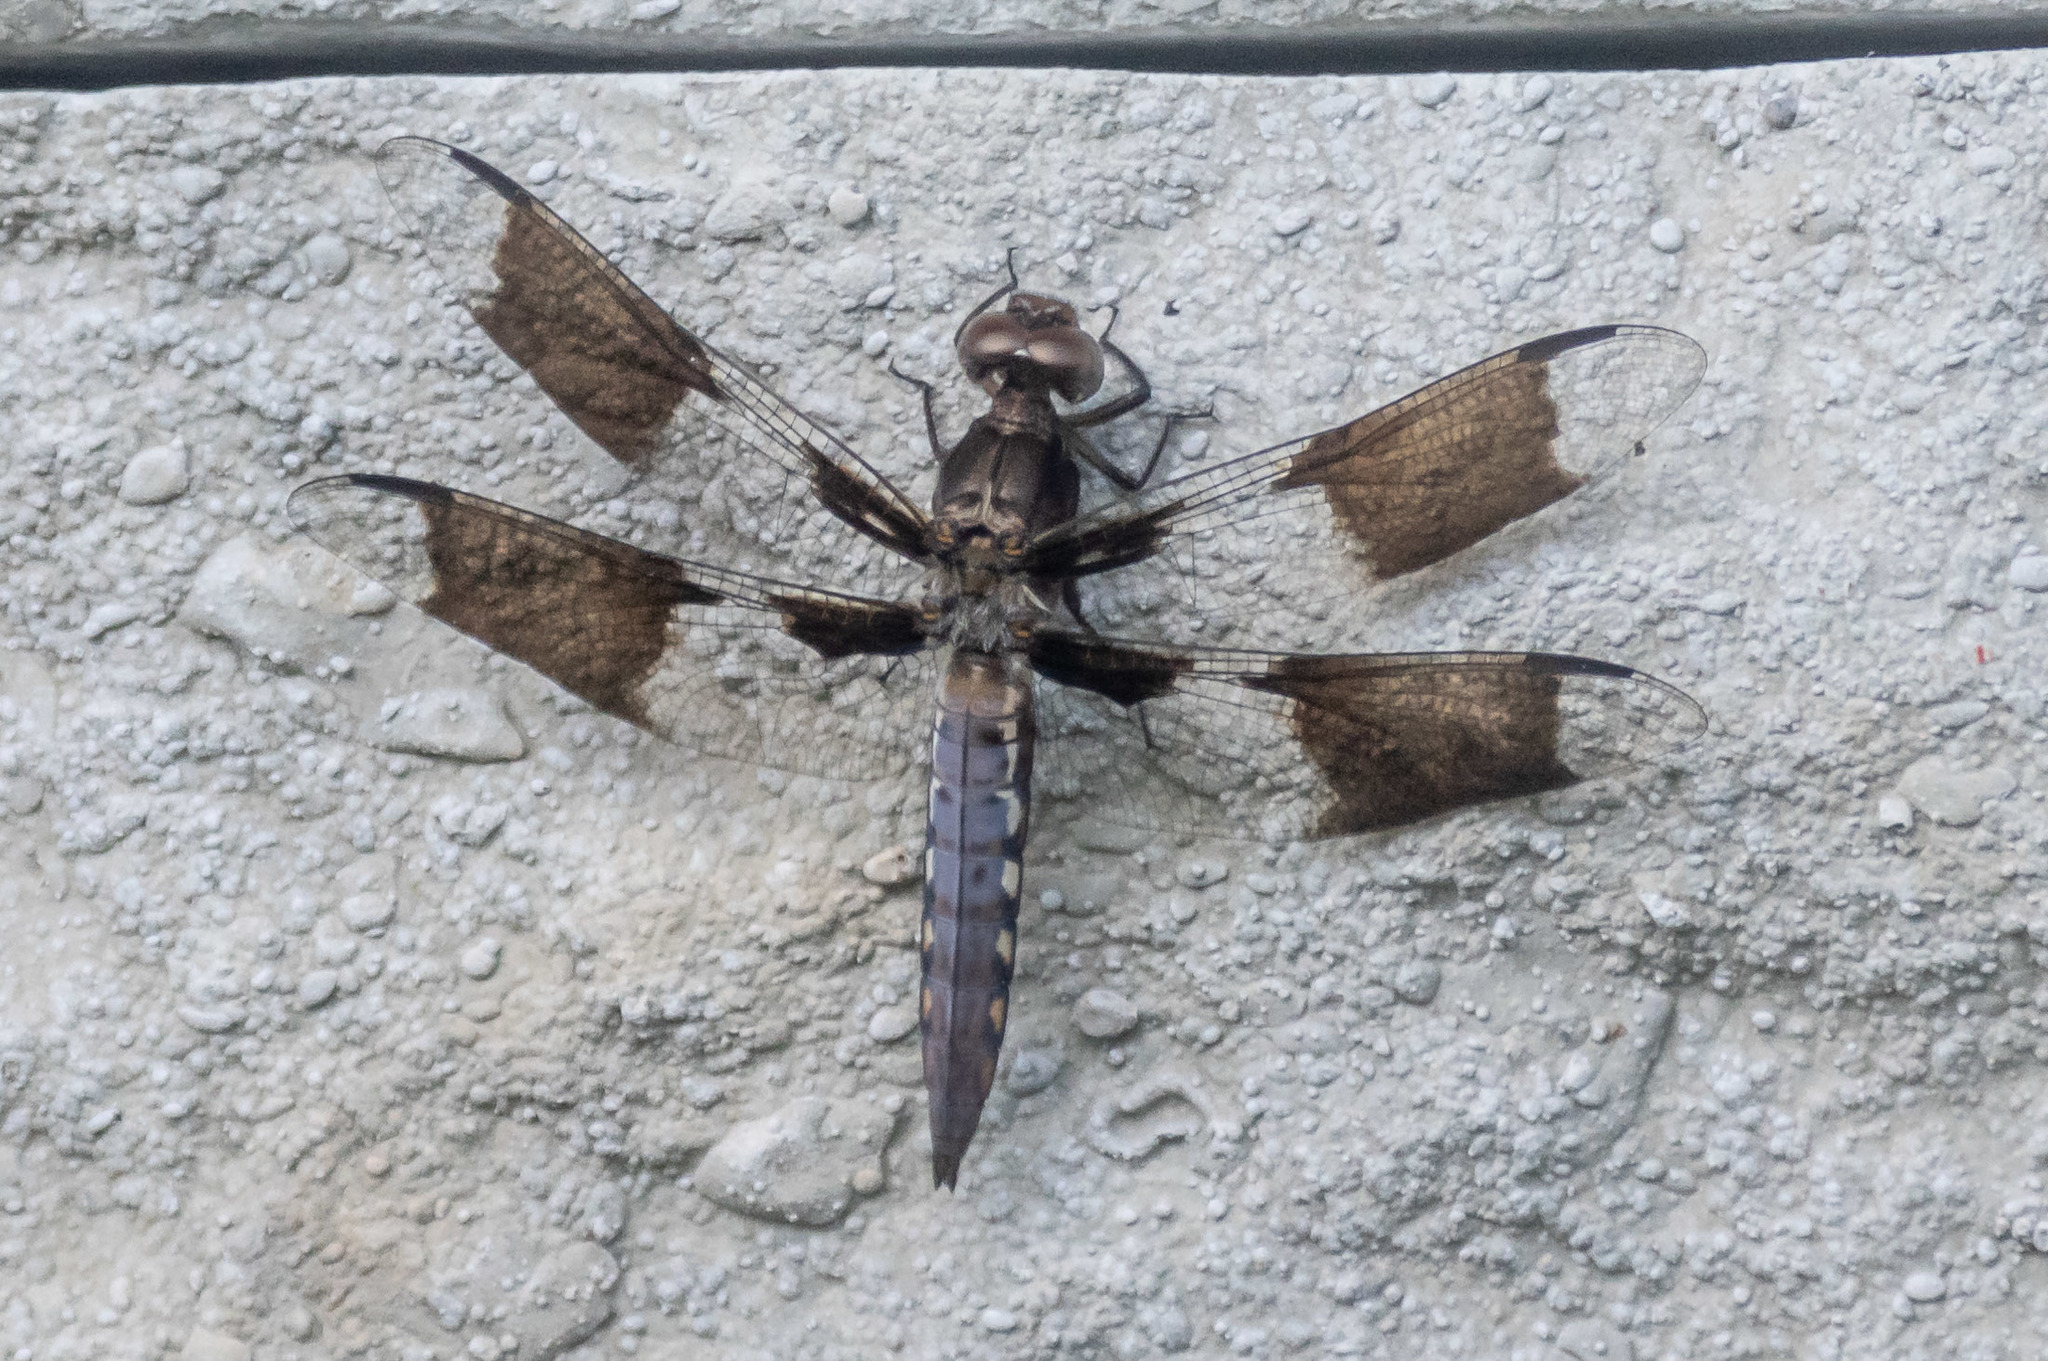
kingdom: Animalia
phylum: Arthropoda
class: Insecta
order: Odonata
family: Libellulidae
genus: Plathemis
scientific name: Plathemis lydia
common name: Common whitetail
